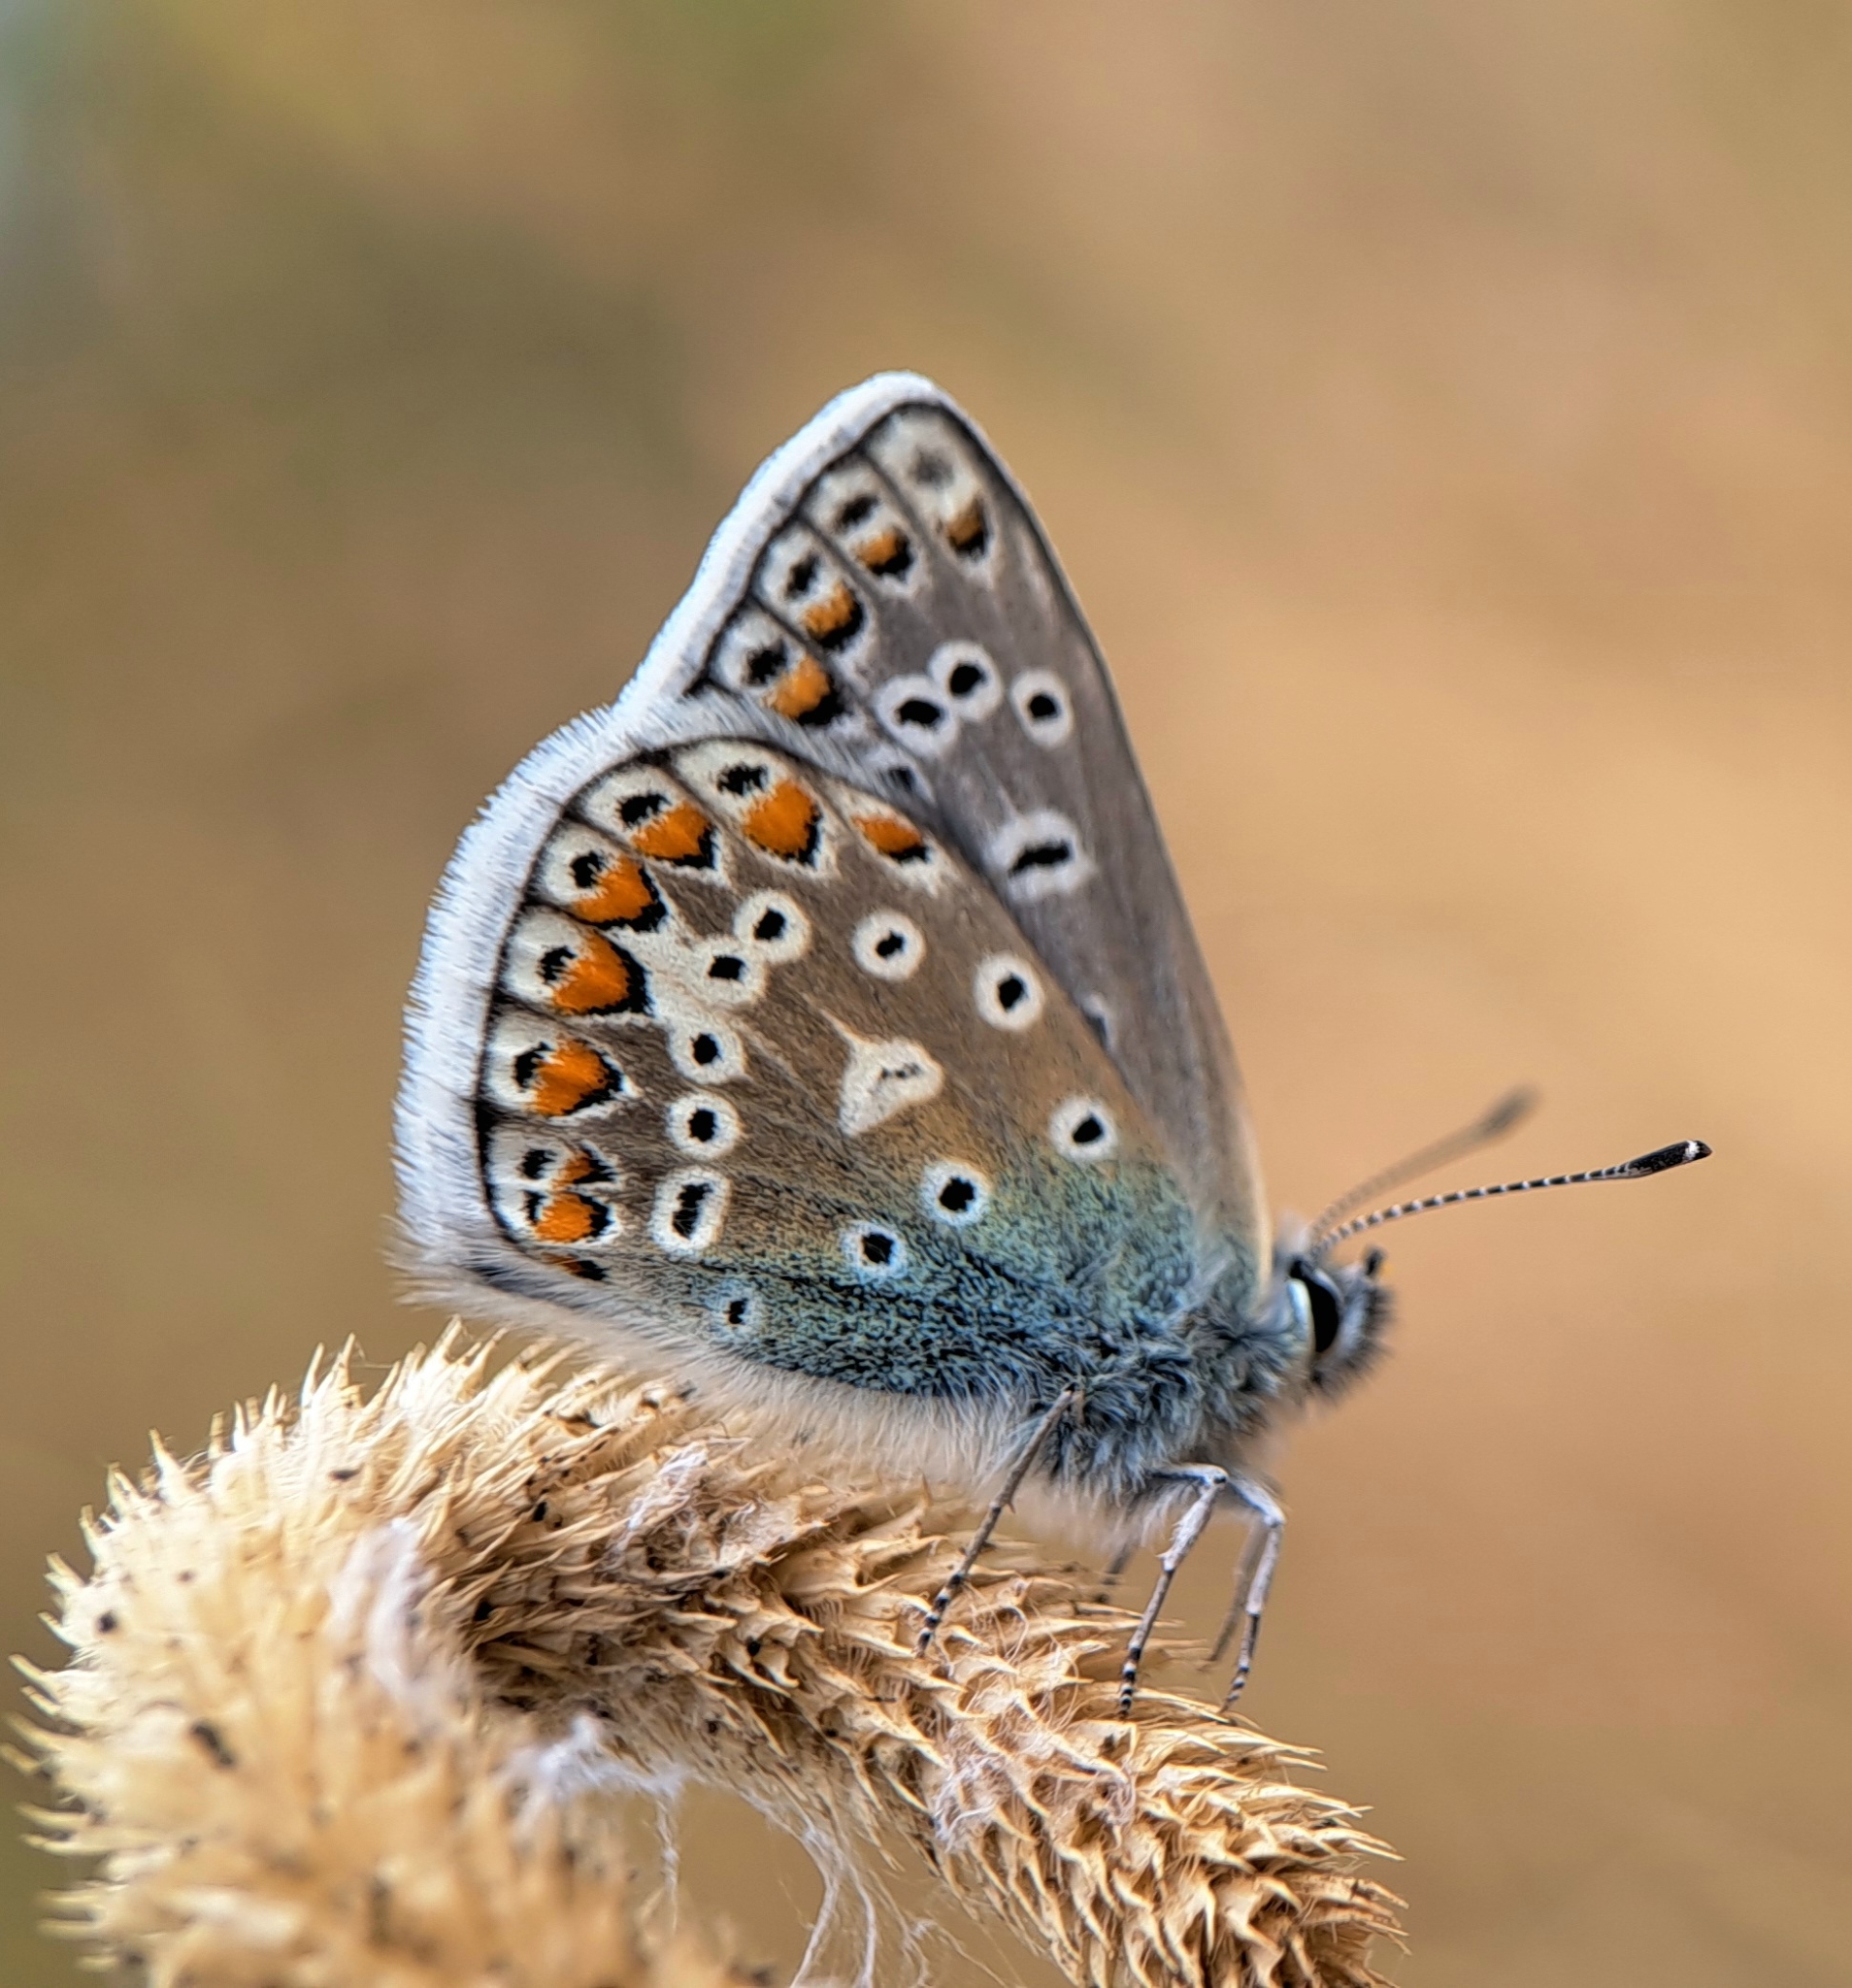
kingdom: Animalia
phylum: Arthropoda
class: Insecta
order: Lepidoptera
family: Lycaenidae
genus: Polyommatus
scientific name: Polyommatus icarus
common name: Common blue
